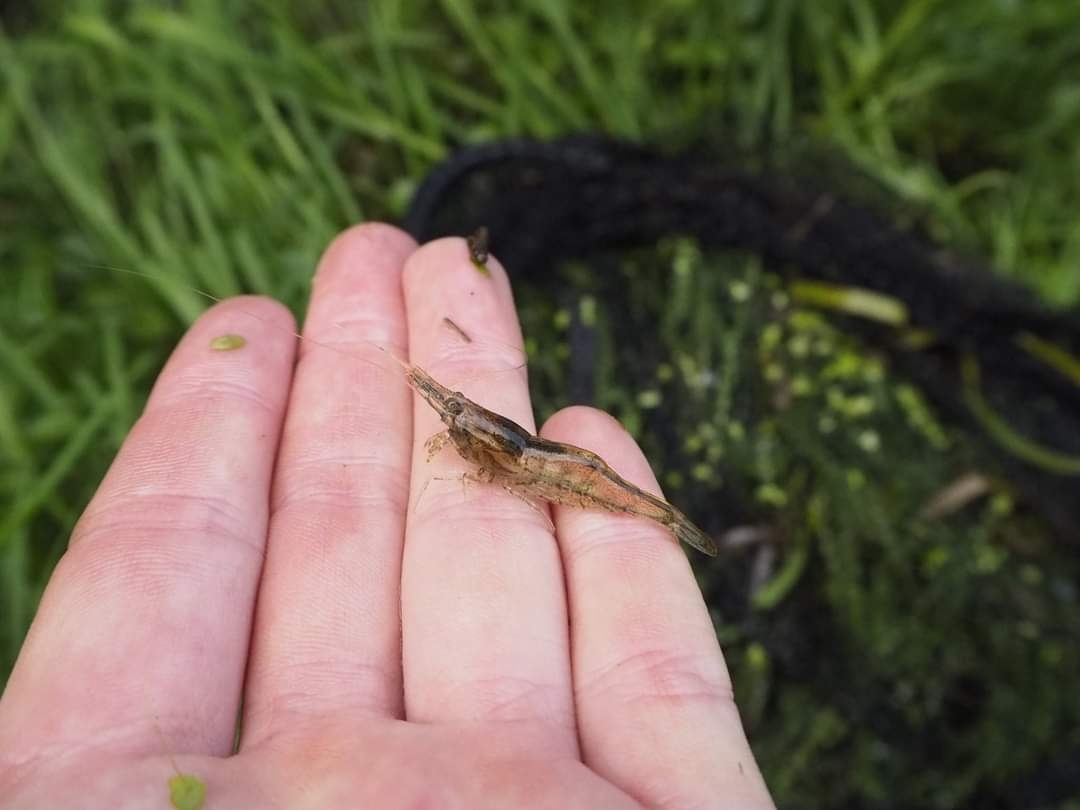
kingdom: Animalia
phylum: Arthropoda
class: Malacostraca
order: Decapoda
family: Atyidae
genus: Paratya
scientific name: Paratya curvirostris
